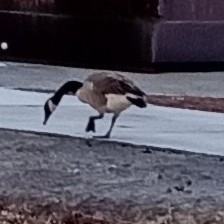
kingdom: Animalia
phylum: Chordata
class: Aves
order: Anseriformes
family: Anatidae
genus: Branta
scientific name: Branta canadensis
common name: Canada goose
